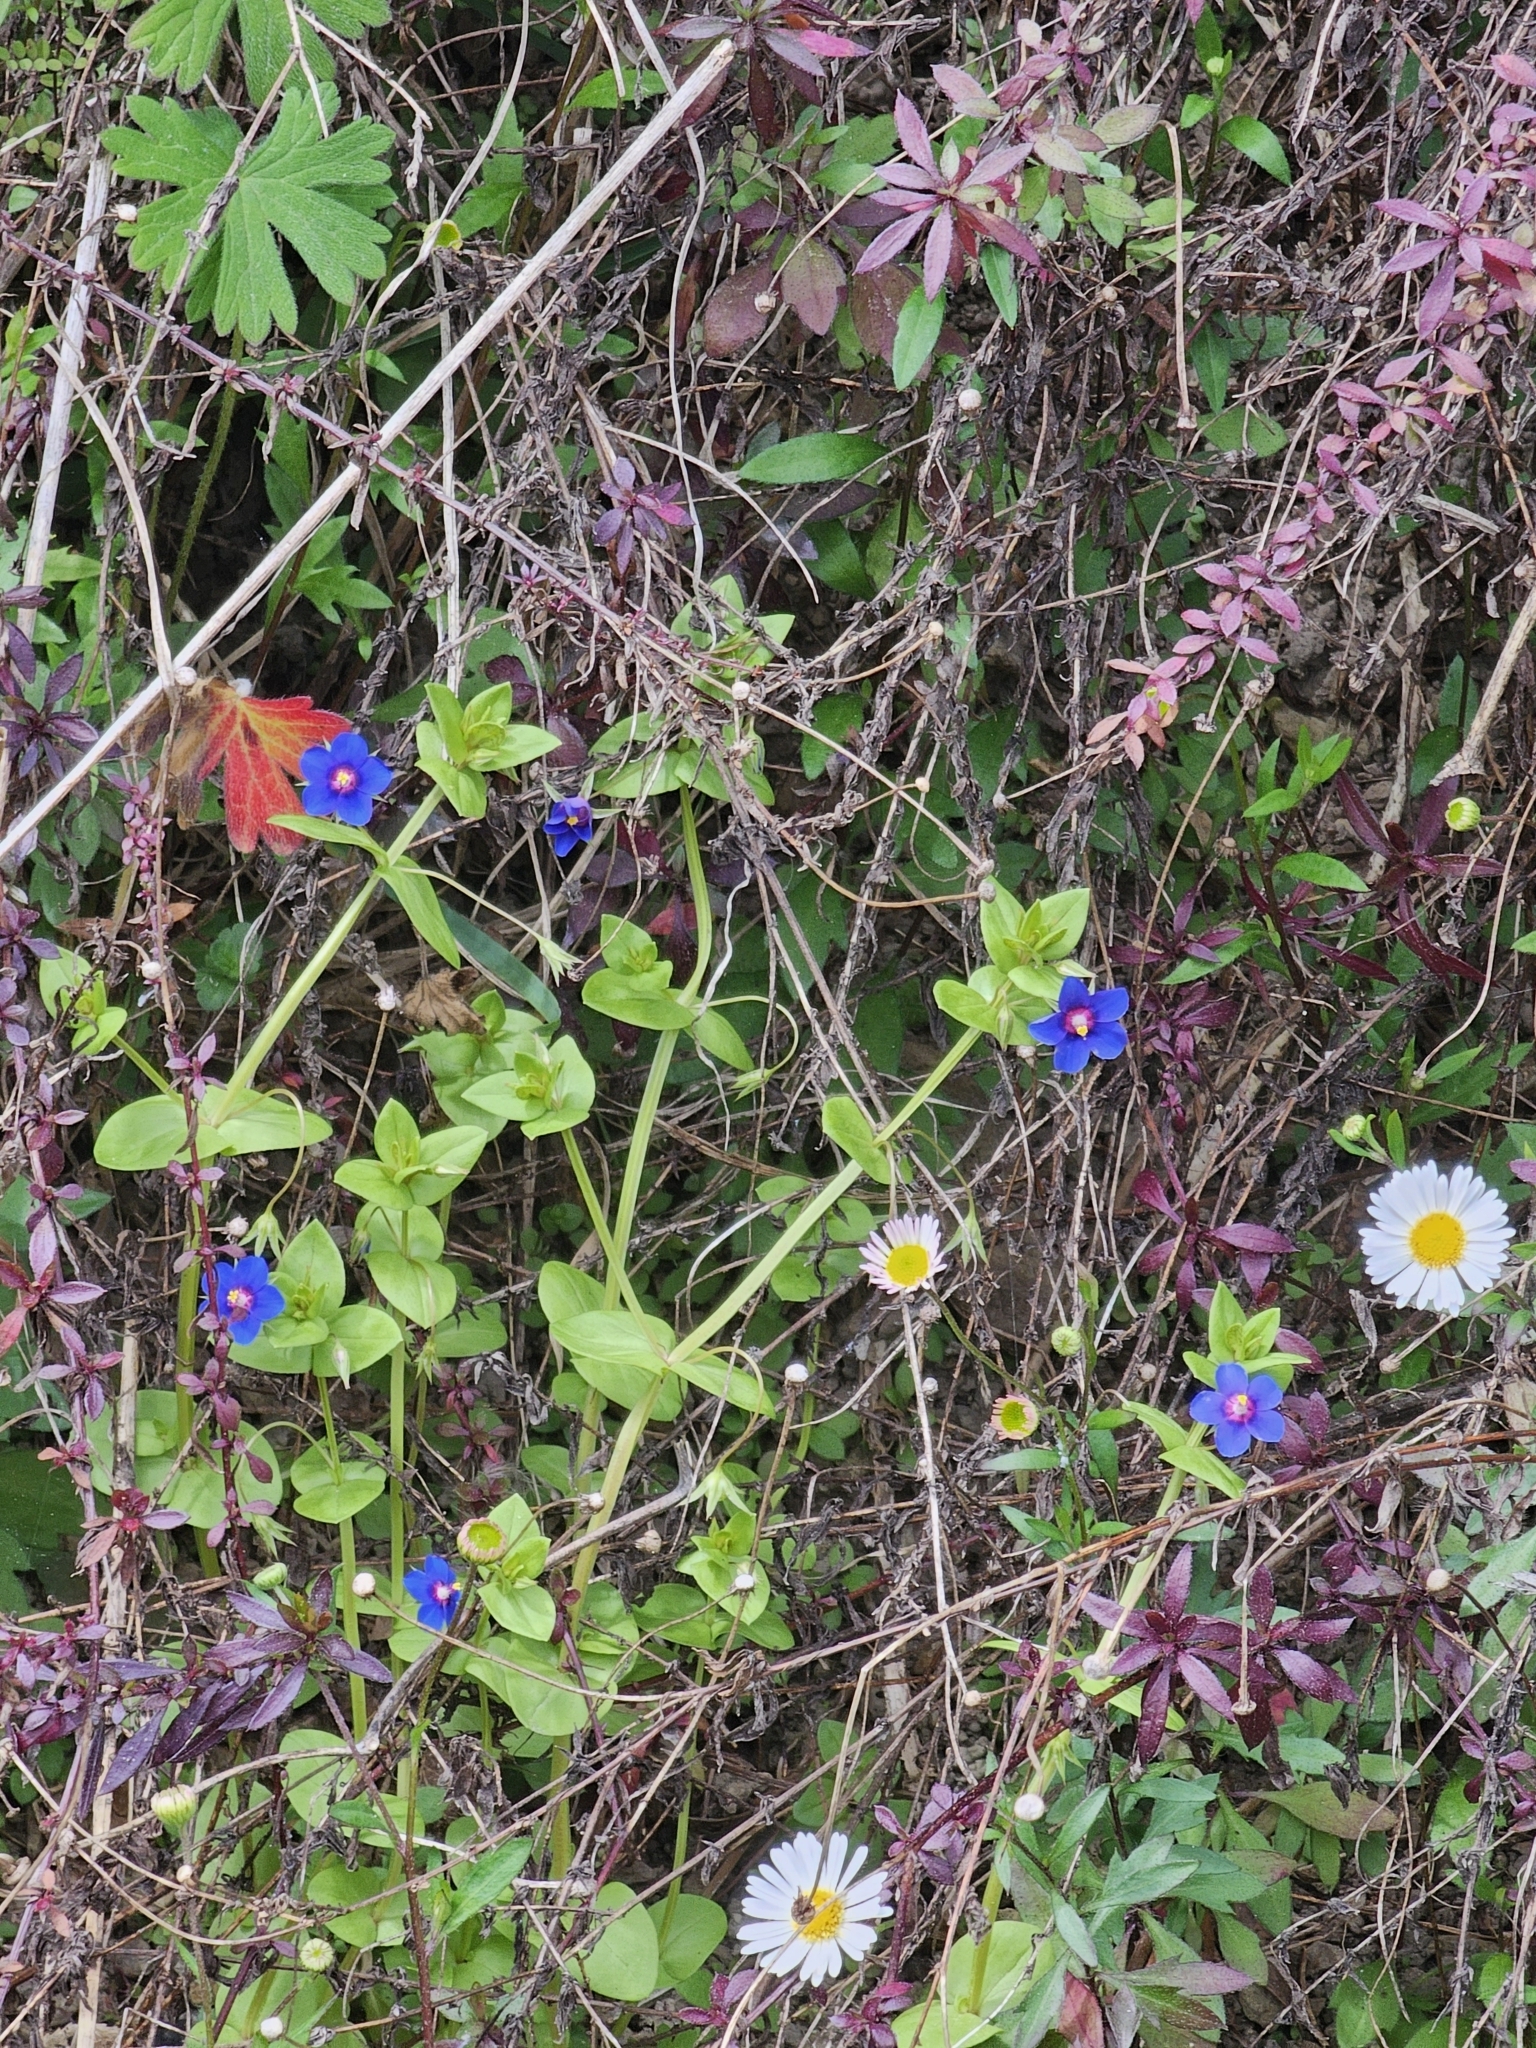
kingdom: Plantae
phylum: Tracheophyta
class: Magnoliopsida
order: Ericales
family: Primulaceae
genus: Lysimachia
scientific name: Lysimachia loeflingii
